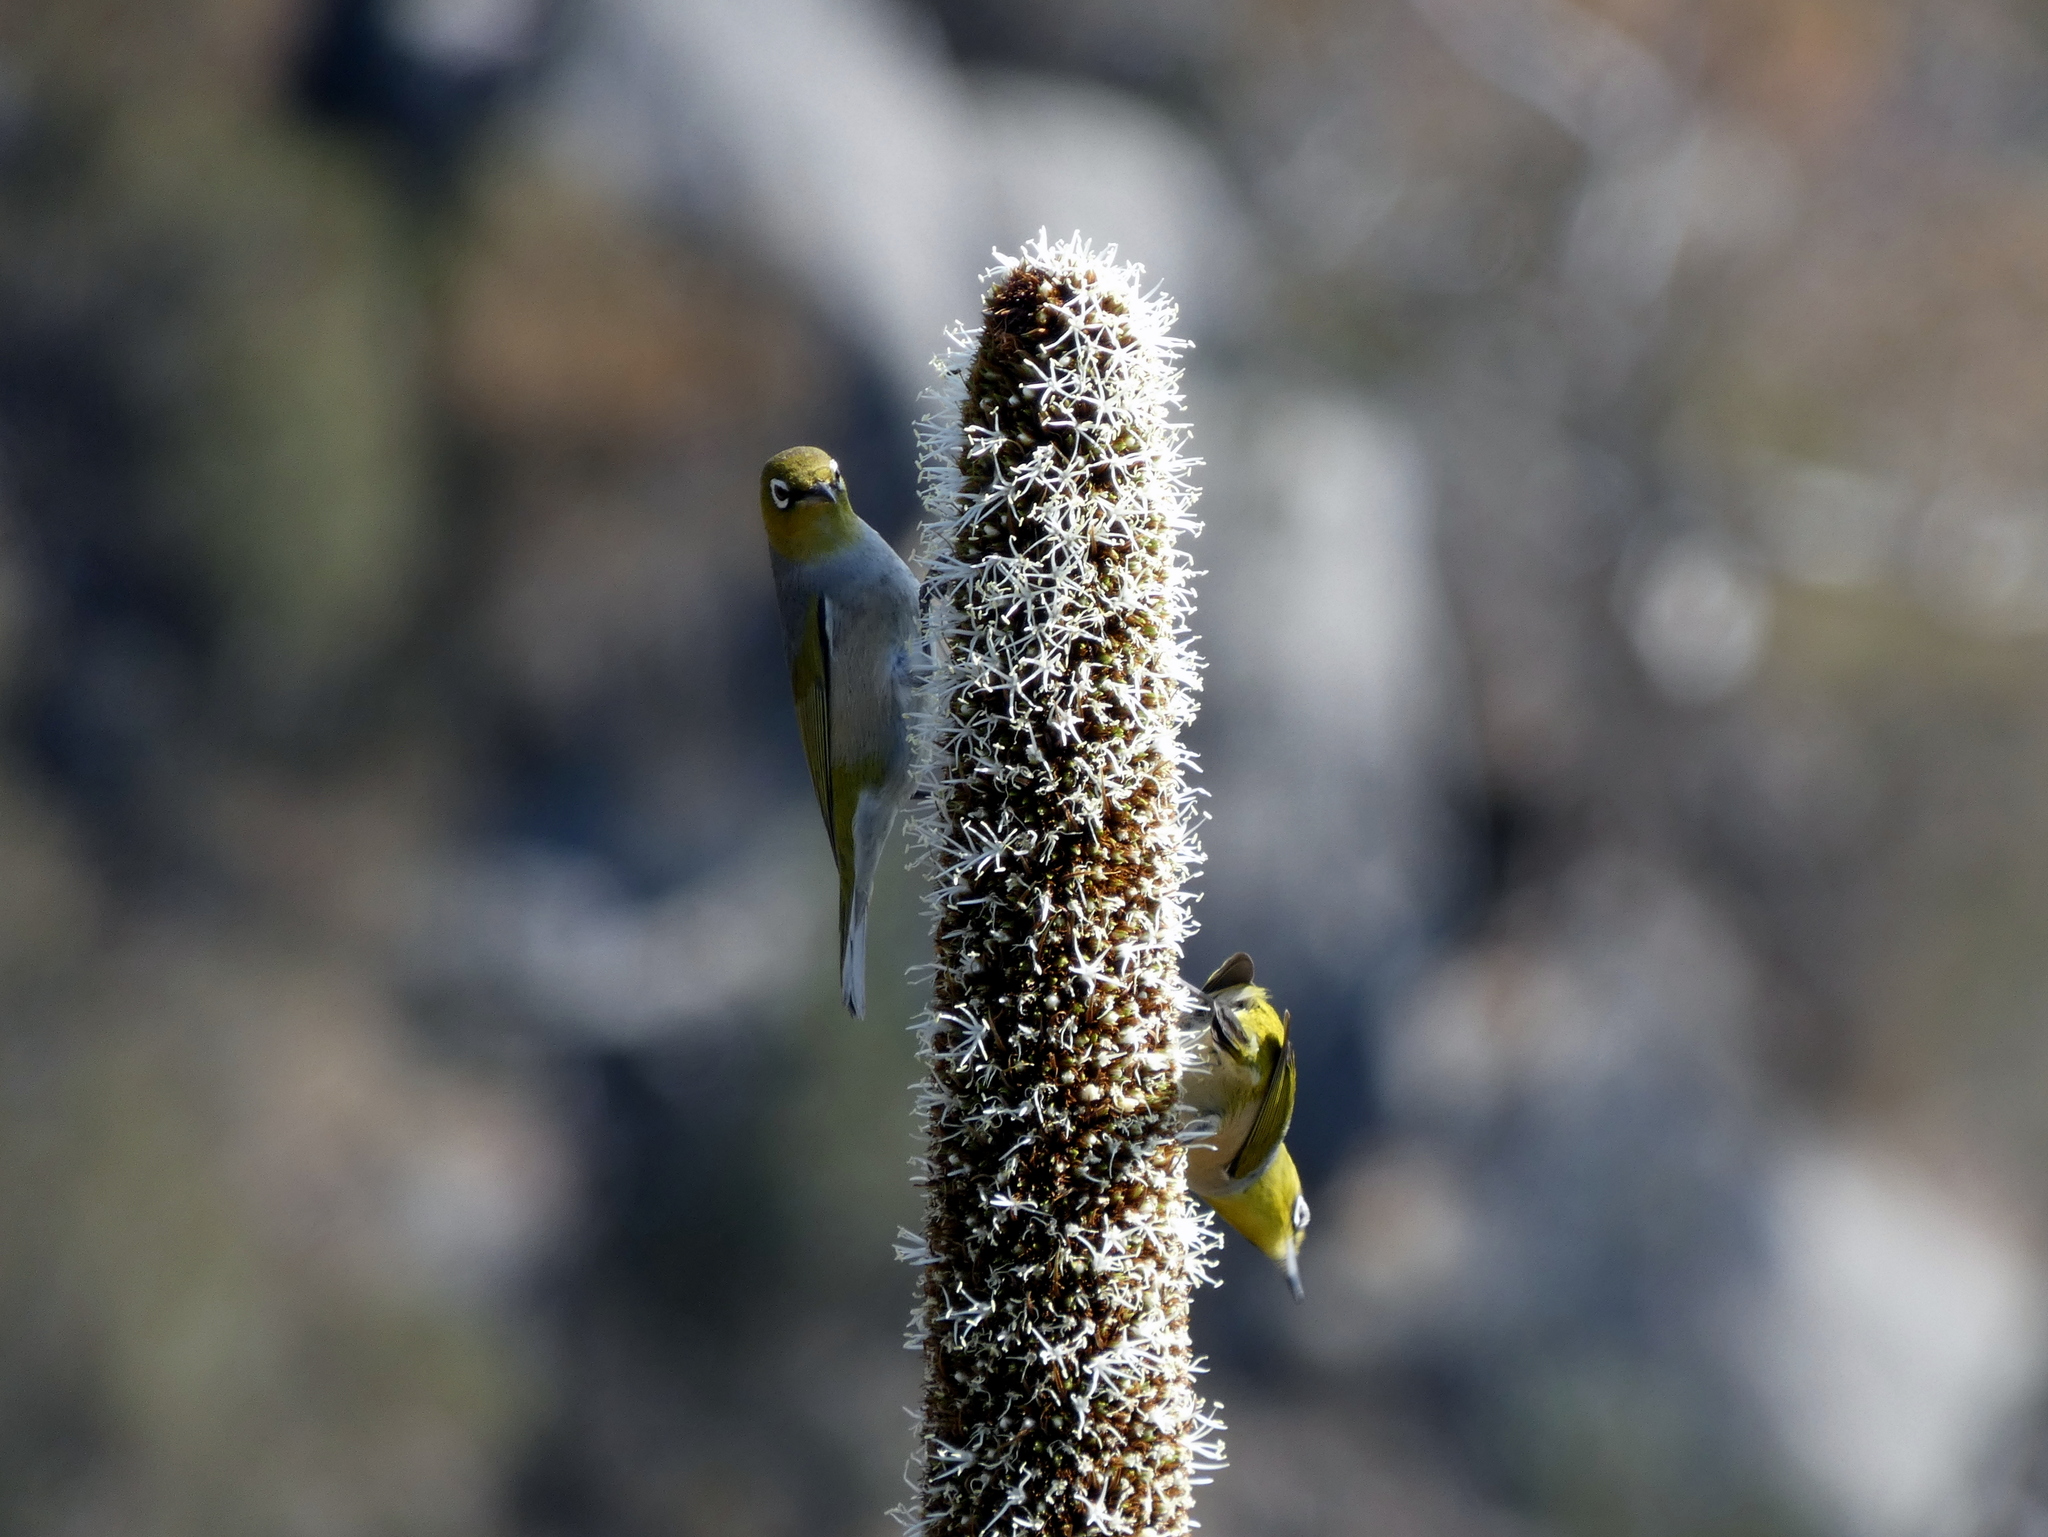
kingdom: Animalia
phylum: Chordata
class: Aves
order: Passeriformes
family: Zosteropidae
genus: Zosterops
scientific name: Zosterops lateralis
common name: Silvereye
